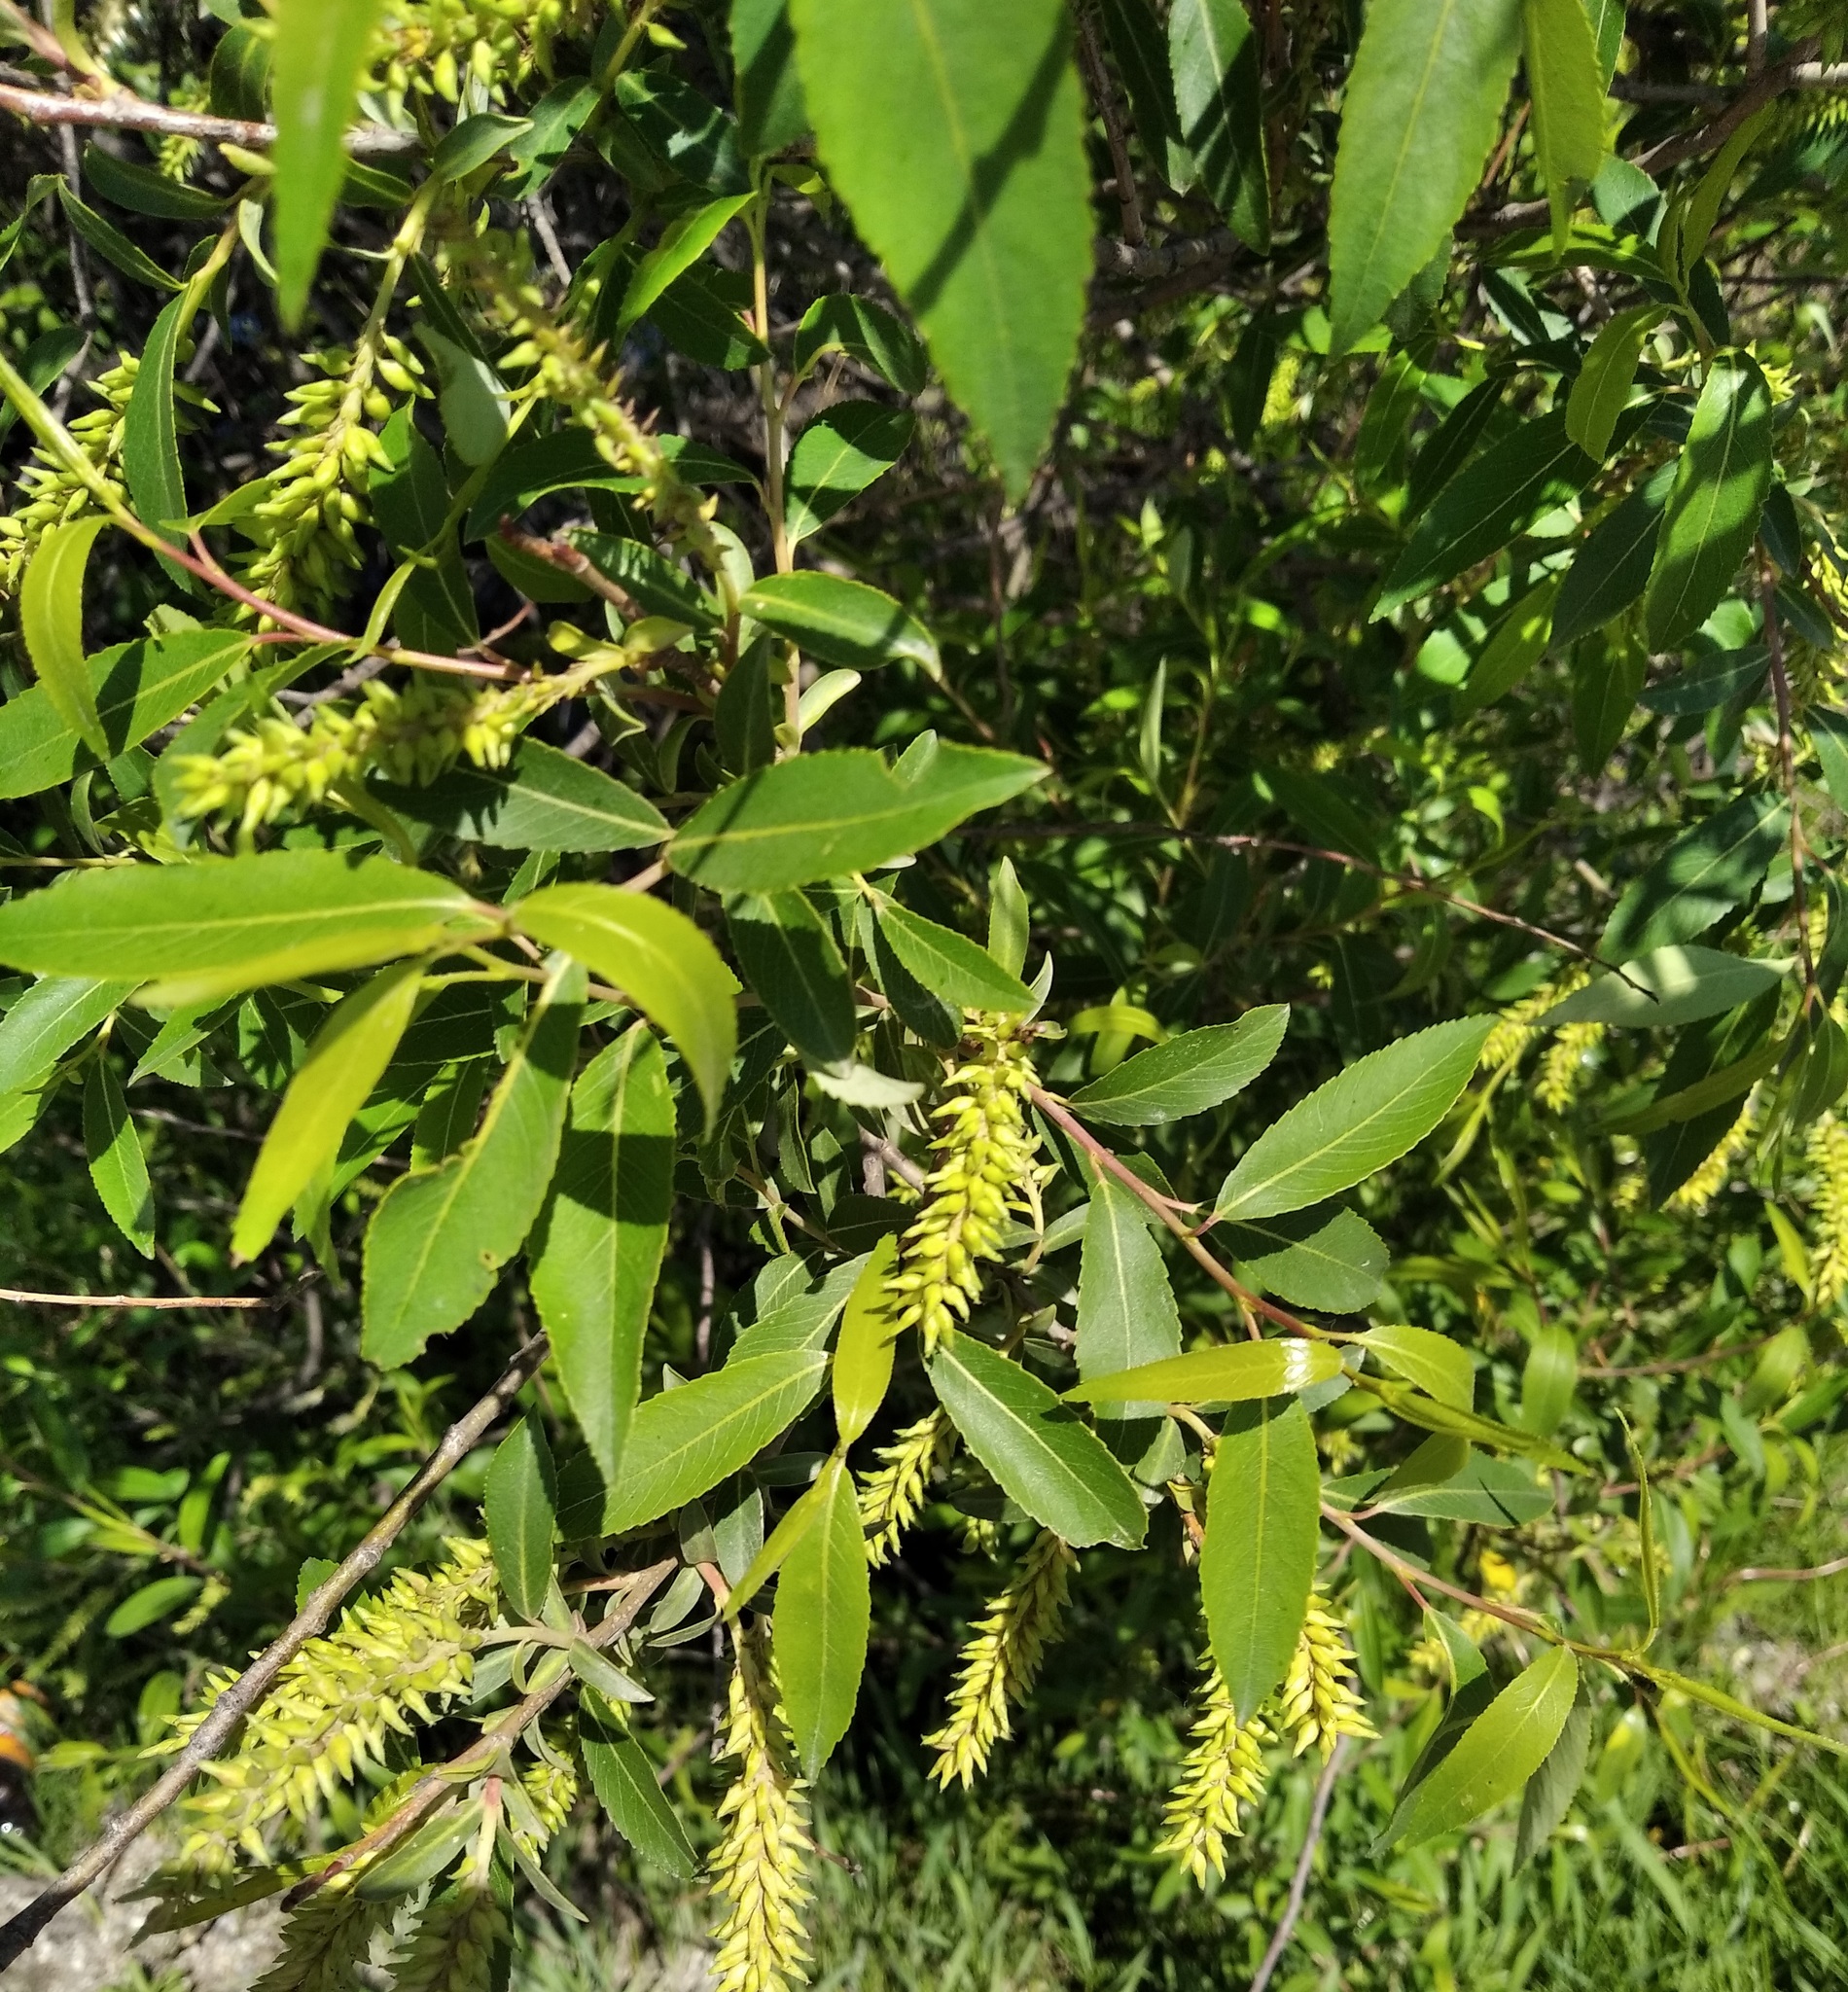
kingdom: Plantae
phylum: Tracheophyta
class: Magnoliopsida
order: Malpighiales
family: Salicaceae
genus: Salix
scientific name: Salix subfragilis
